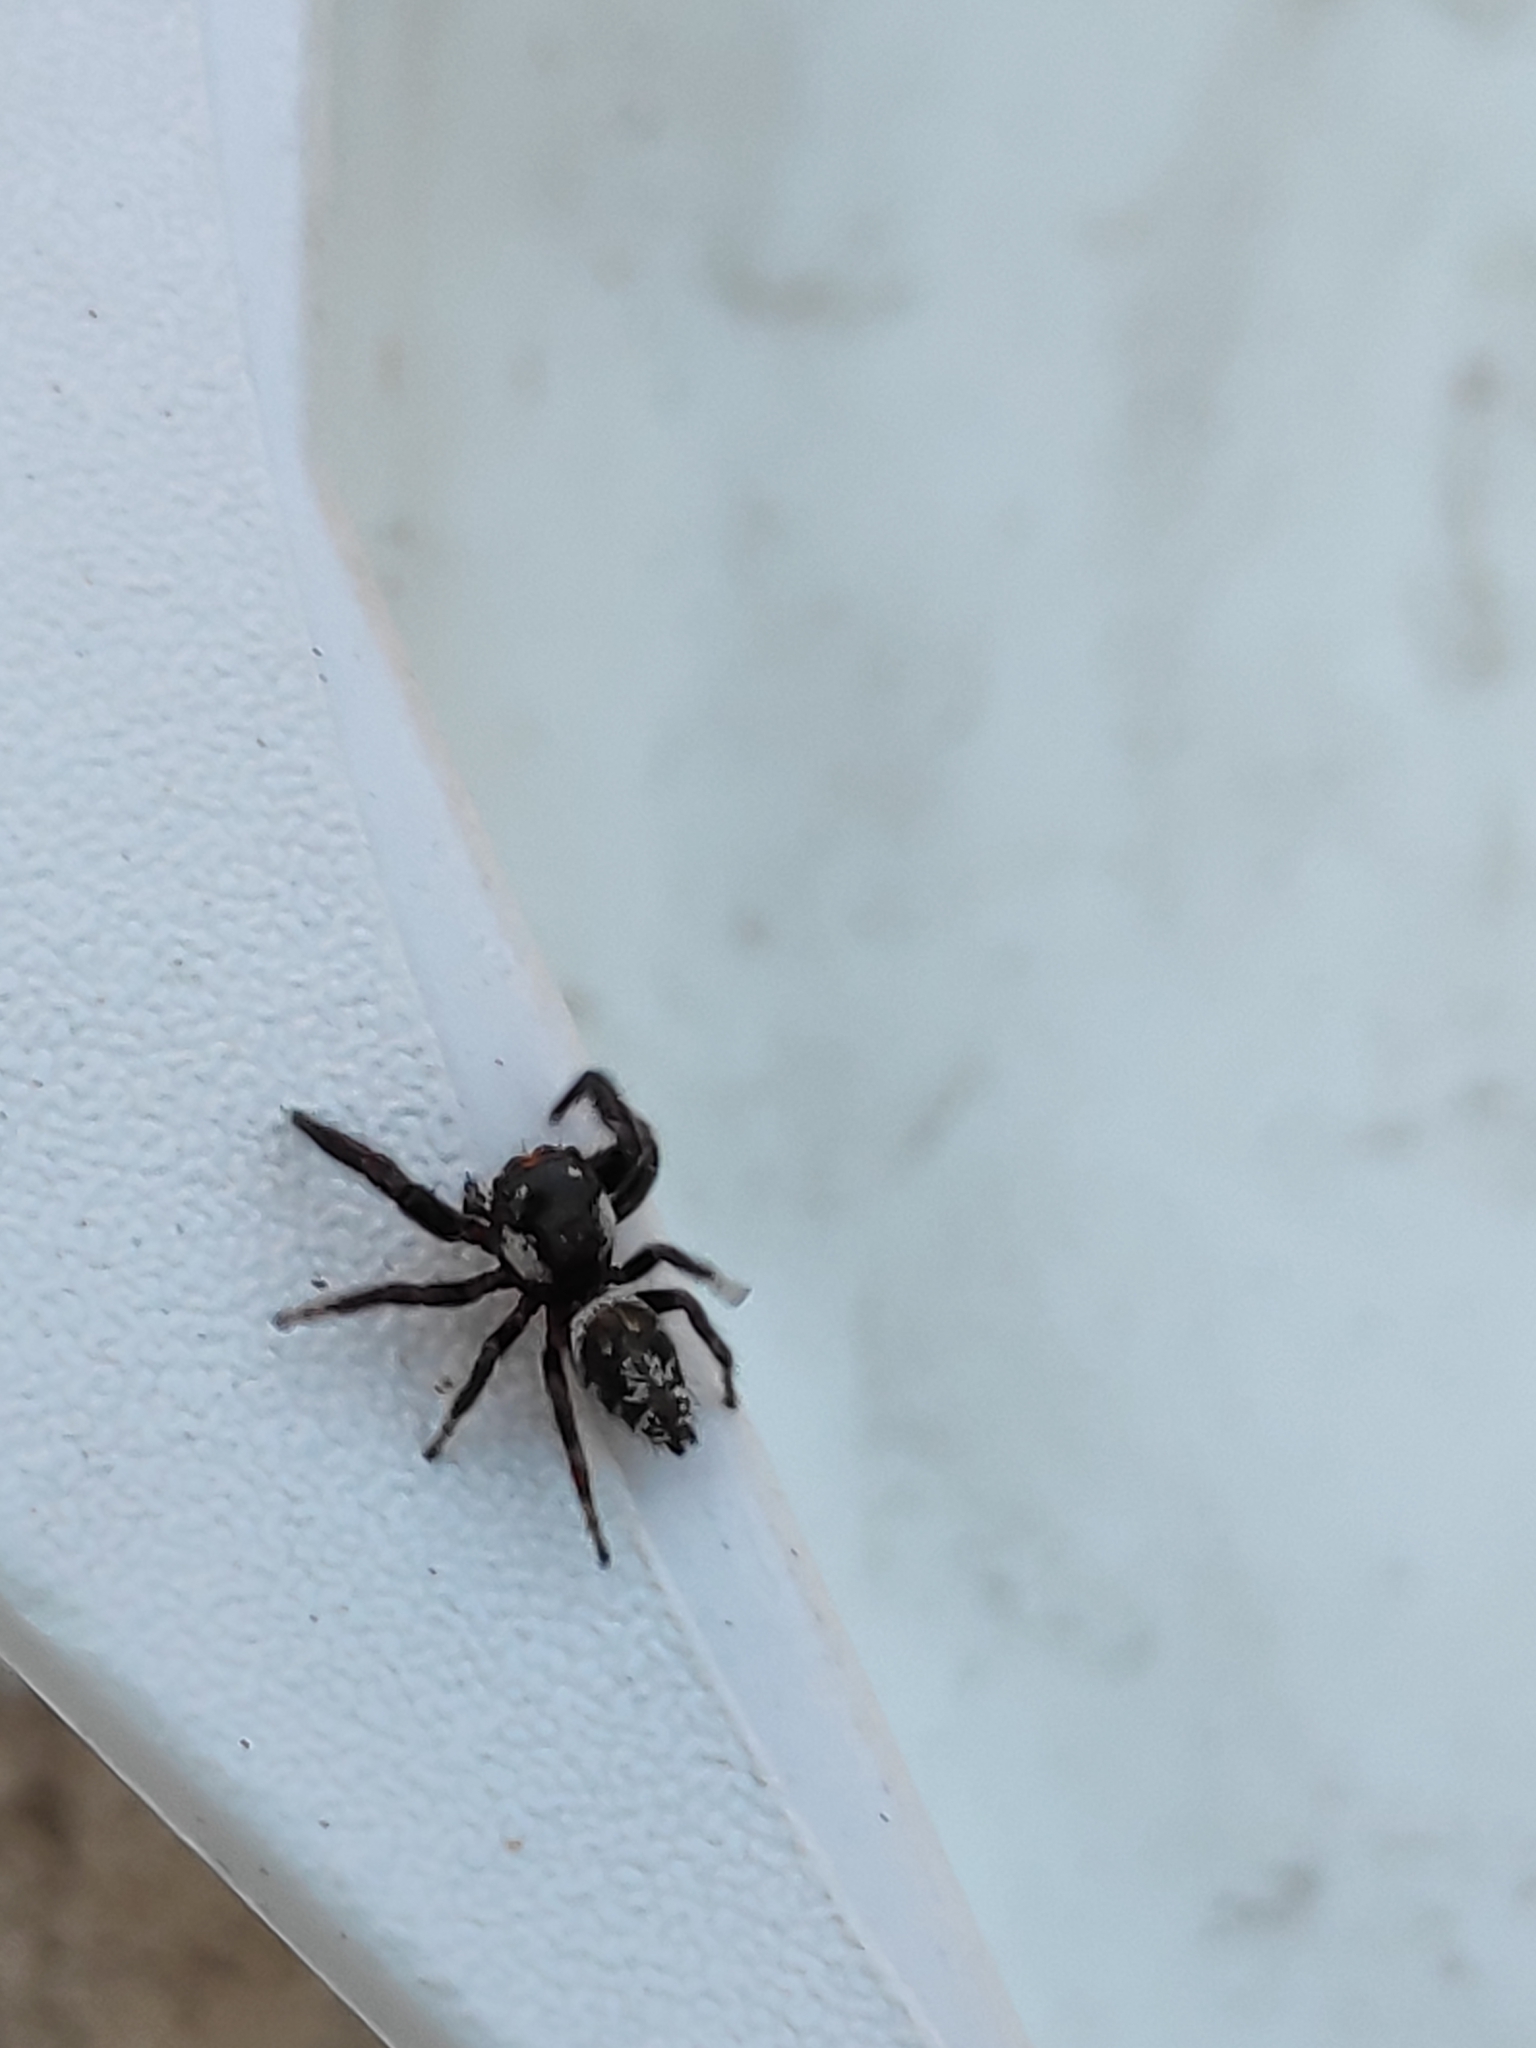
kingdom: Animalia
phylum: Arthropoda
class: Arachnida
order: Araneae
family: Salticidae
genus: Macaroeris
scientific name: Macaroeris nidicolens
